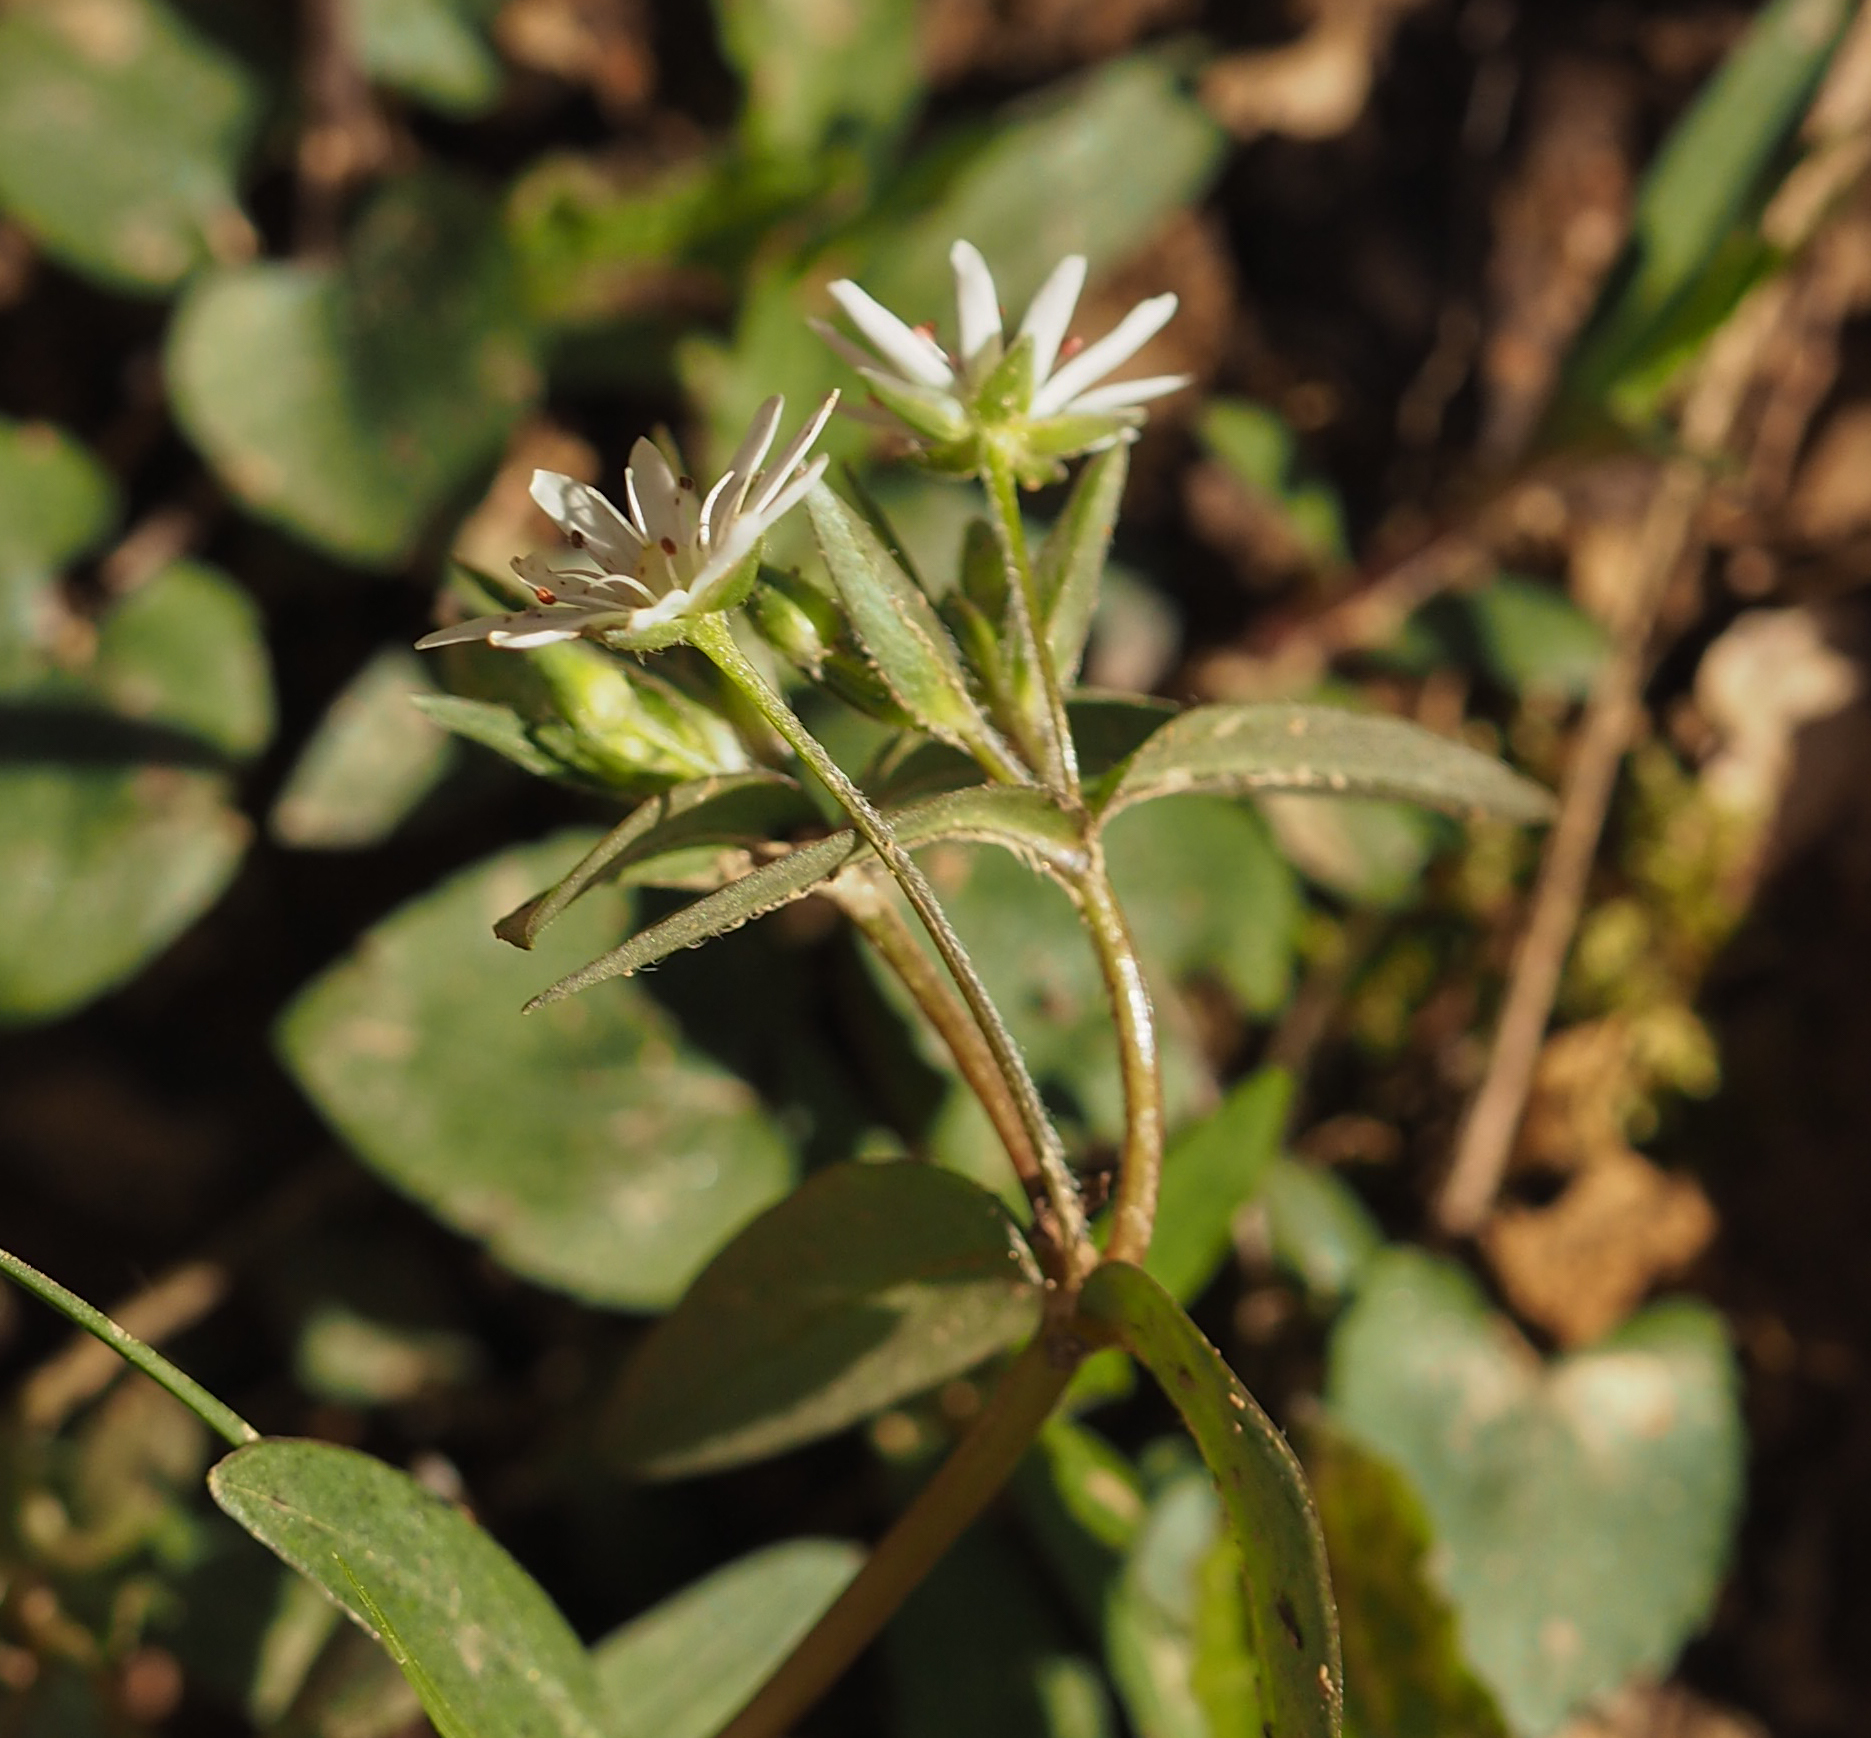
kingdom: Plantae
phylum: Tracheophyta
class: Magnoliopsida
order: Caryophyllales
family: Caryophyllaceae
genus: Stellaria
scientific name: Stellaria pubera
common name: Star chickweed
